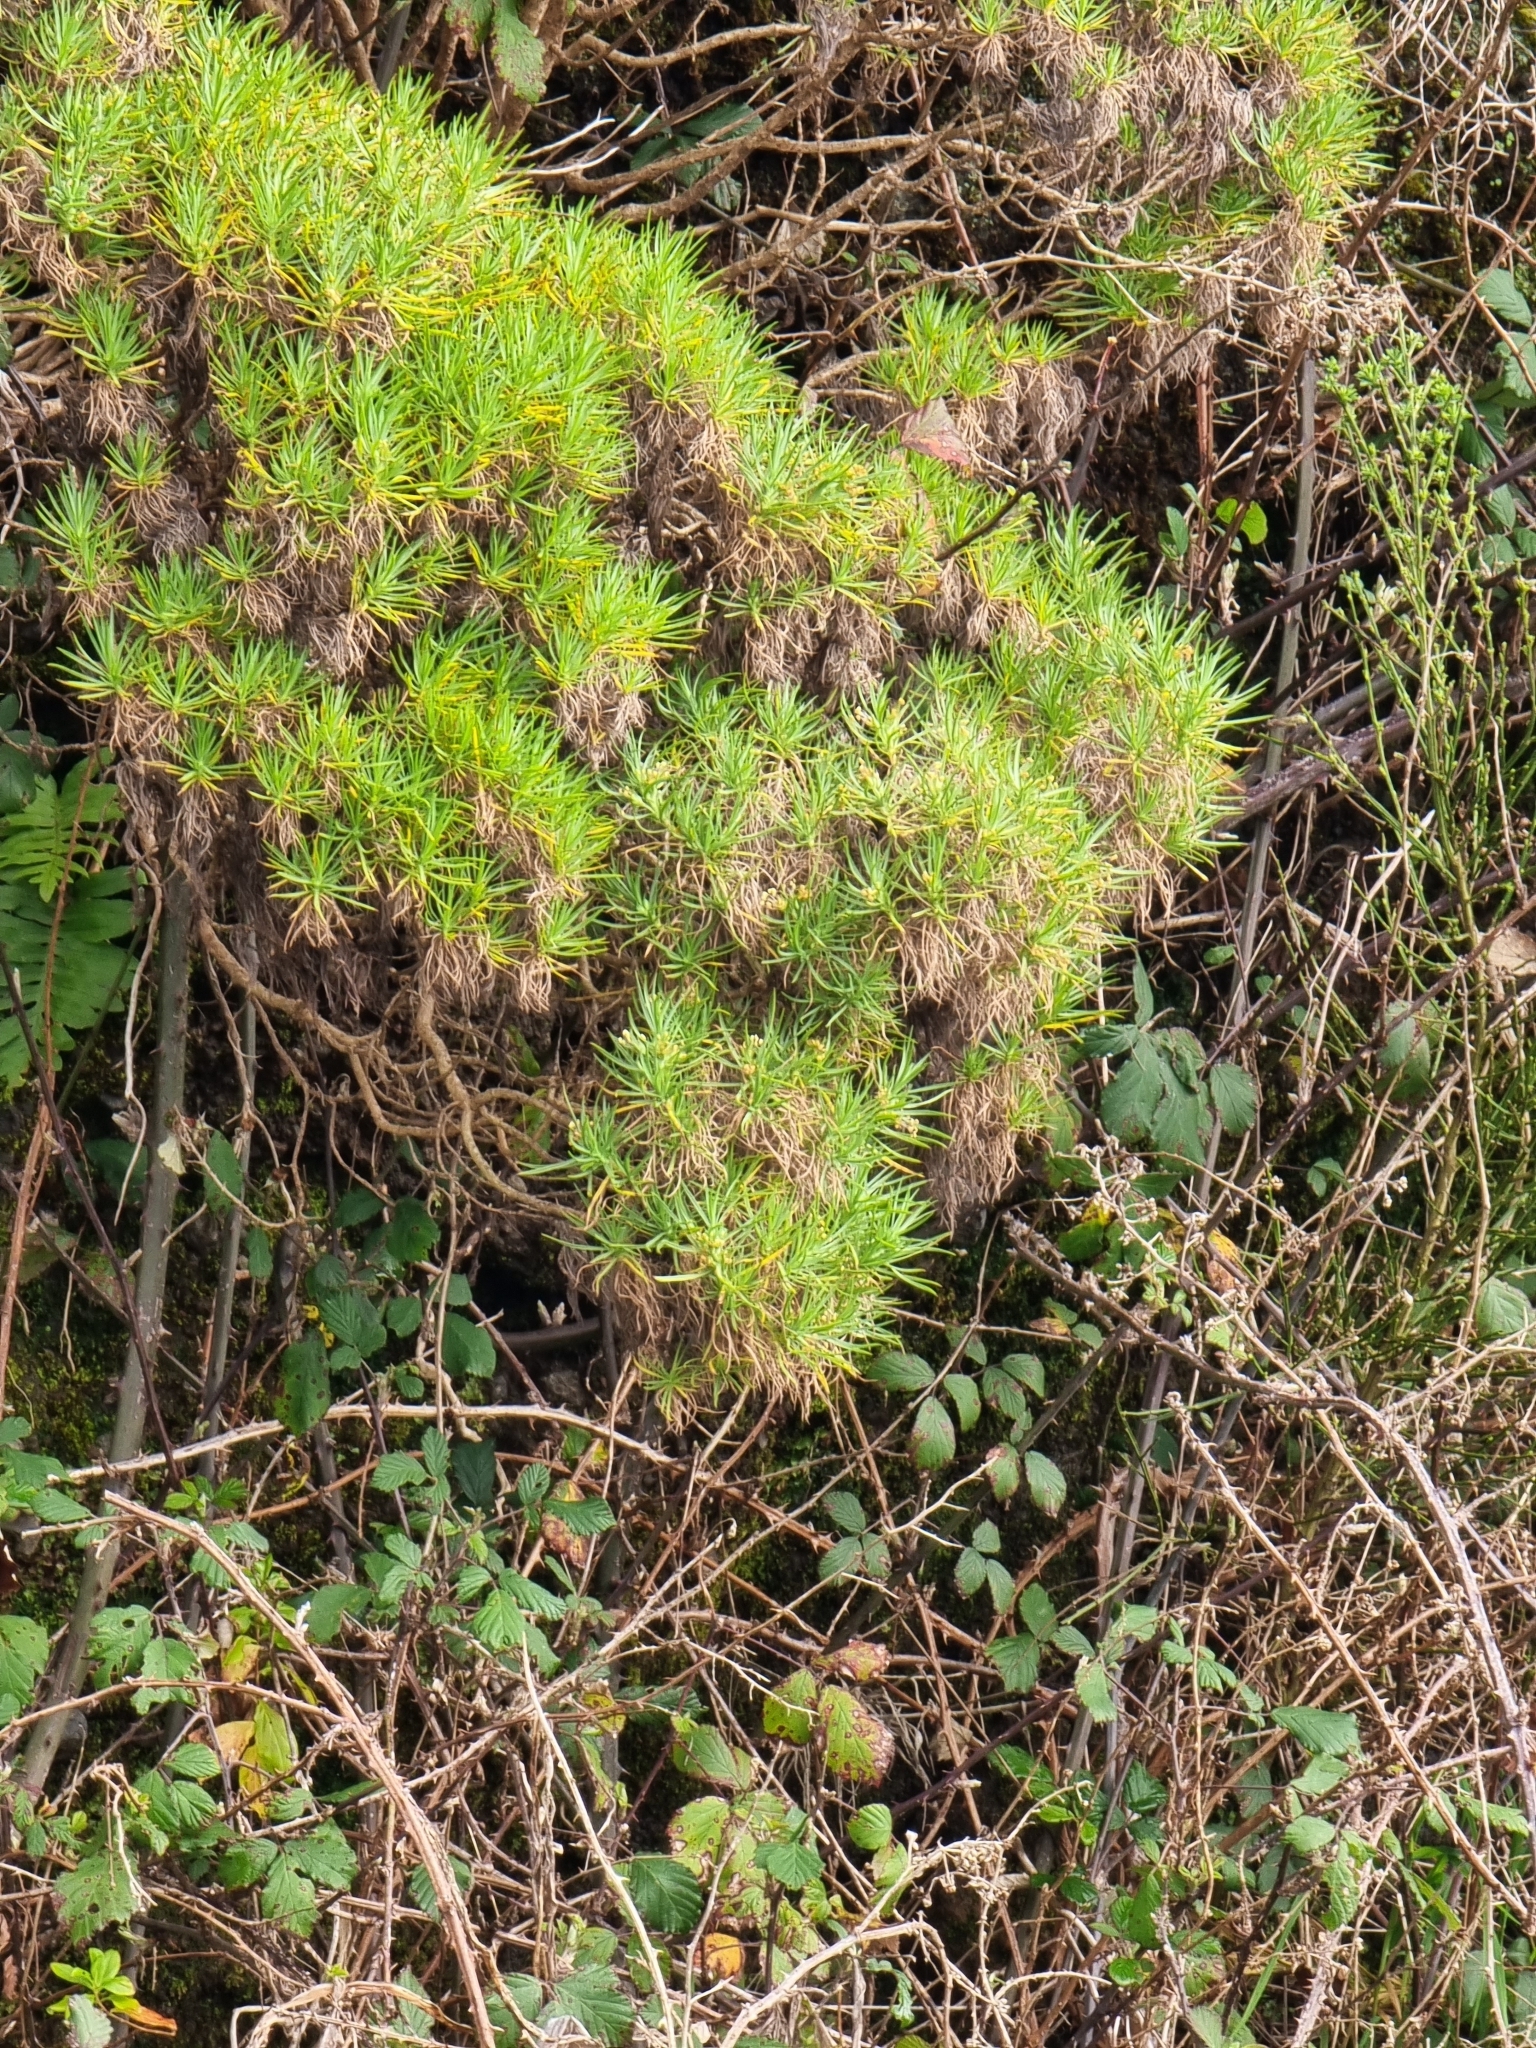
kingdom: Plantae
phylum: Tracheophyta
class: Magnoliopsida
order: Lamiales
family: Plantaginaceae
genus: Plantago
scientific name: Plantago arborescens
